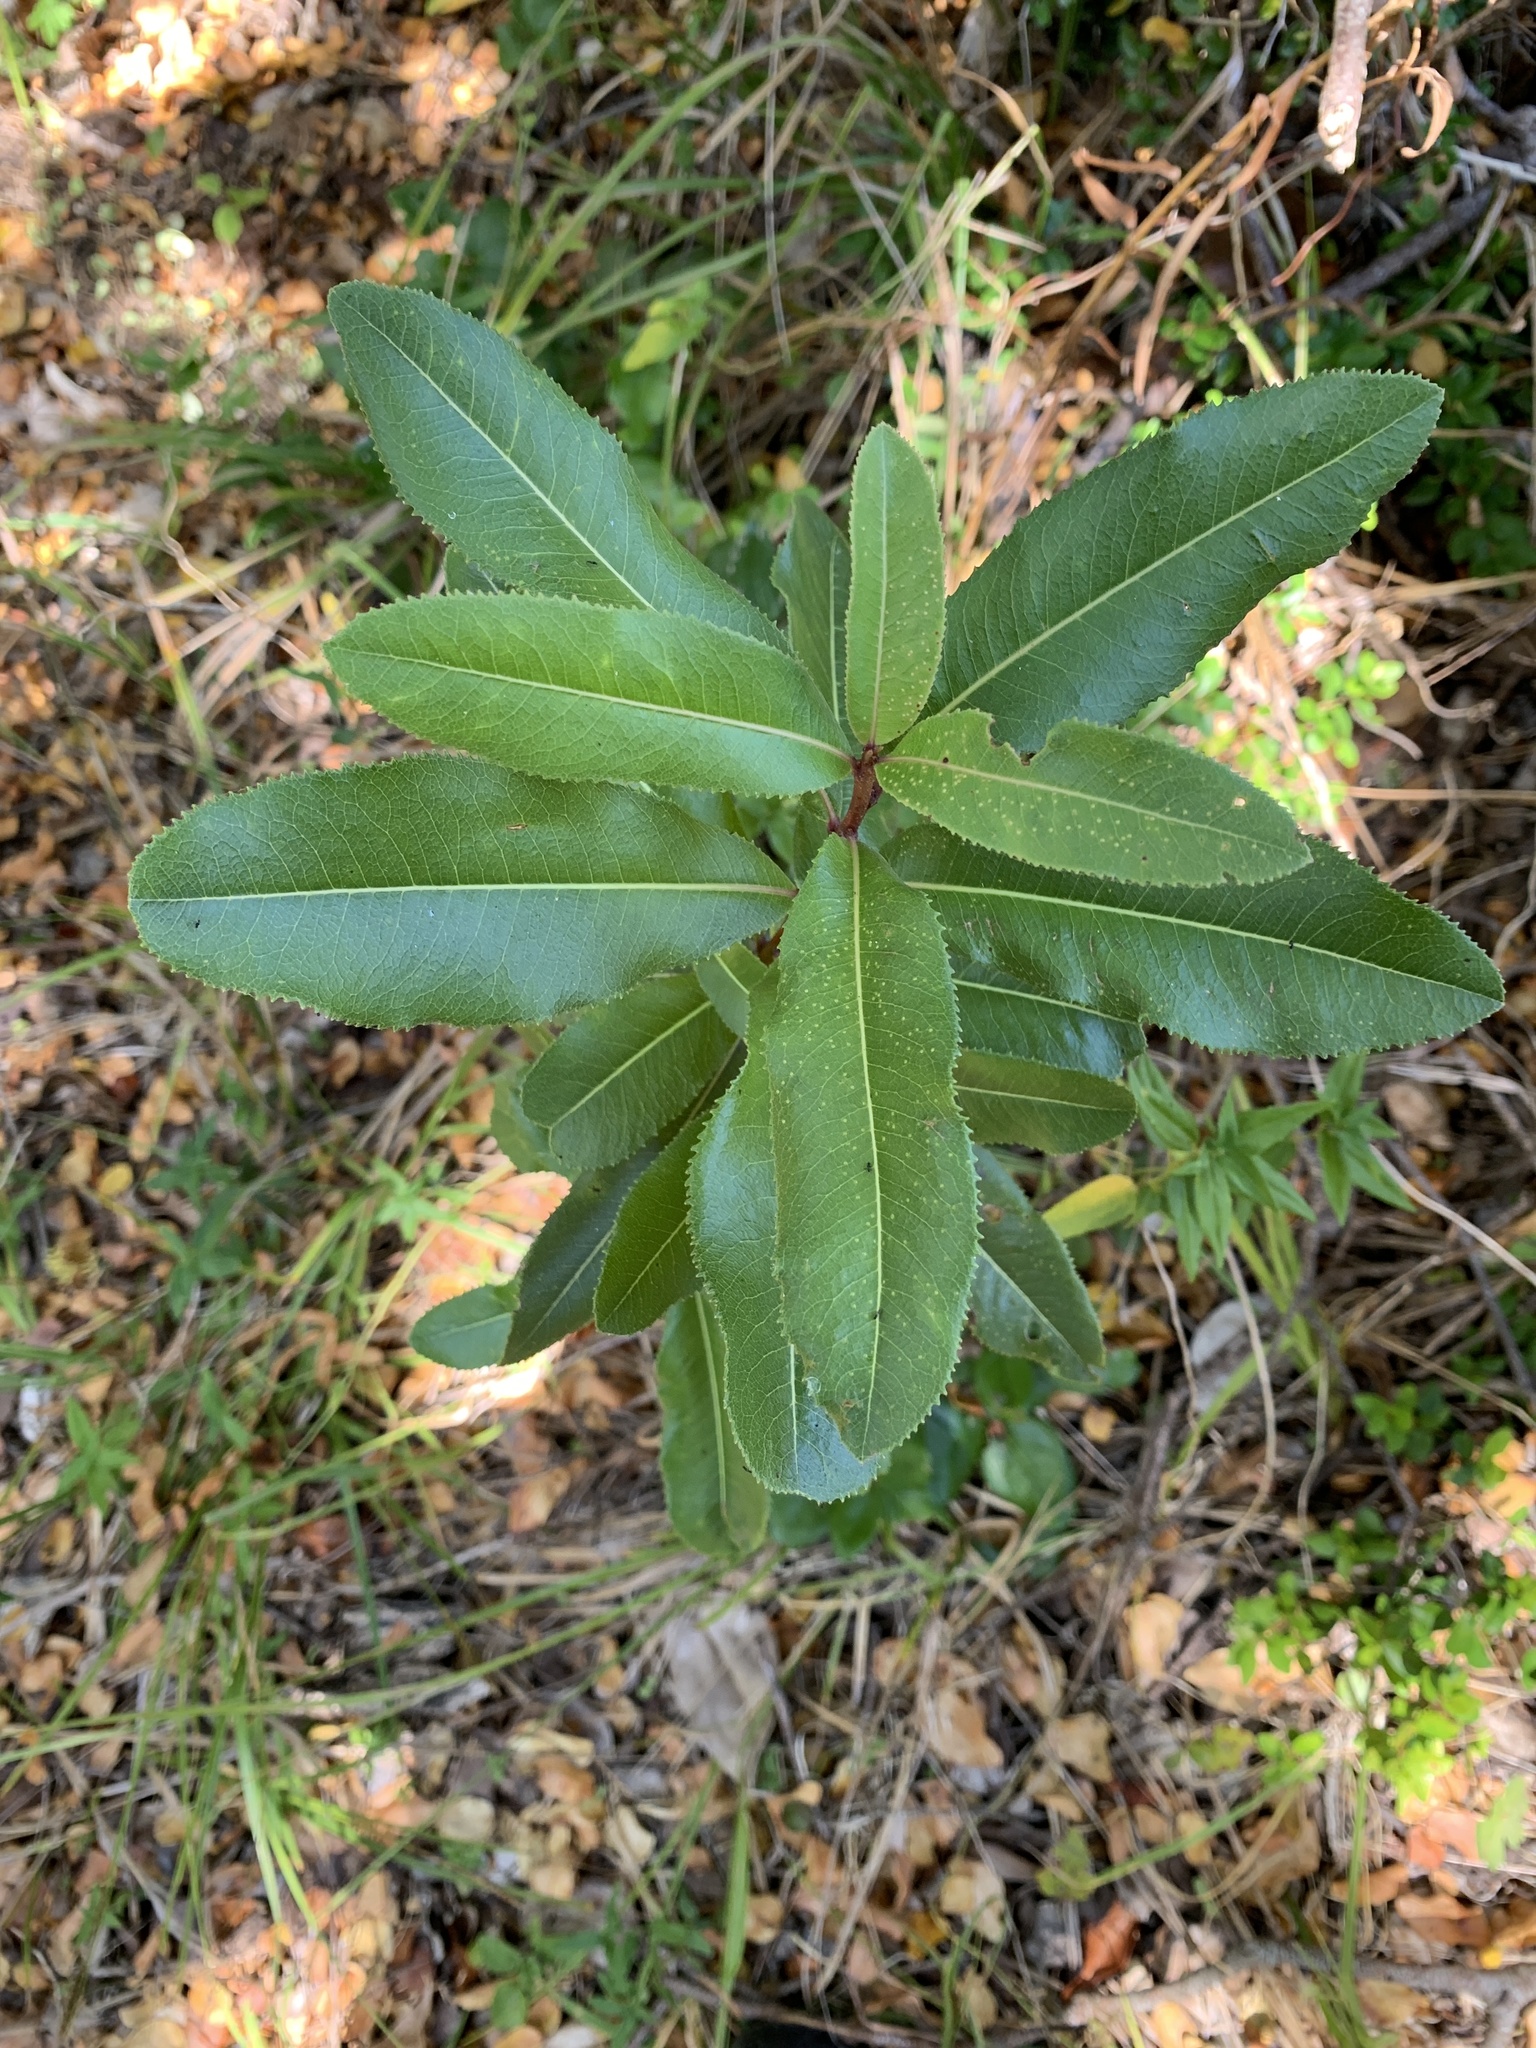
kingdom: Plantae
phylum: Tracheophyta
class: Magnoliopsida
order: Rosales
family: Rosaceae
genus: Kageneckia
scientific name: Kageneckia oblonga
